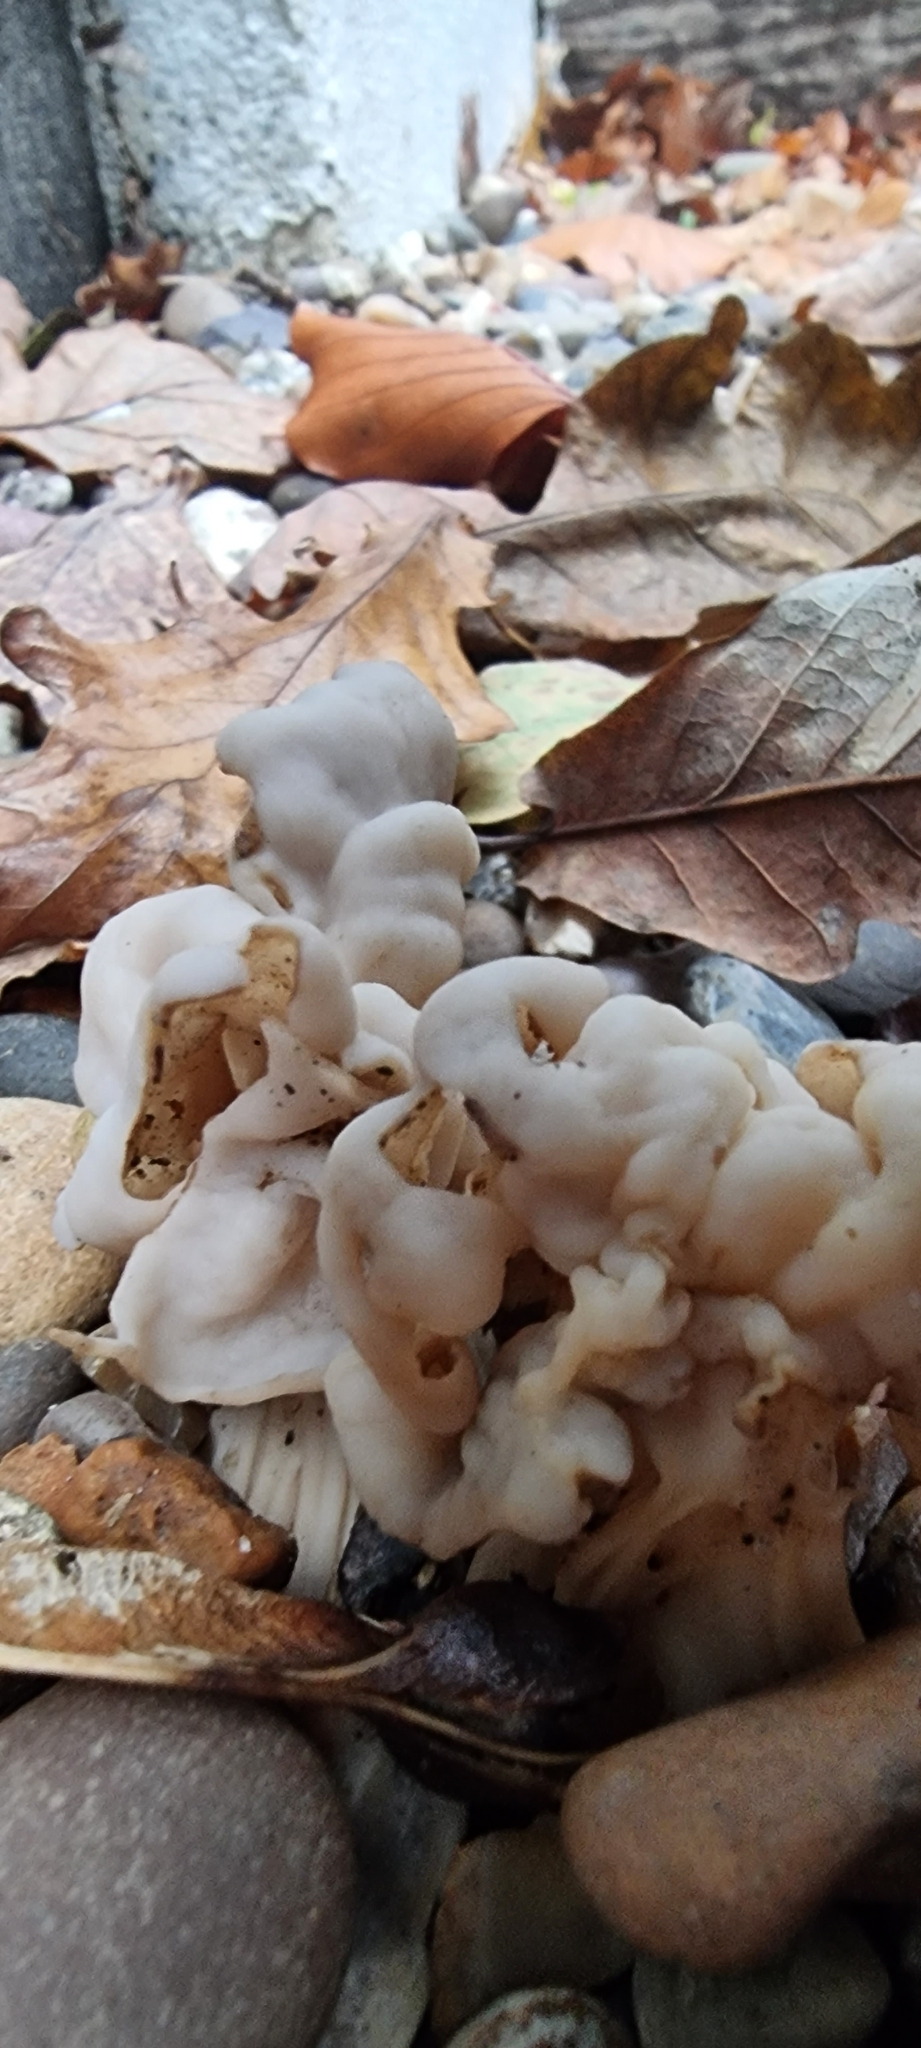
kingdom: Fungi
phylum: Ascomycota
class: Pezizomycetes
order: Pezizales
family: Helvellaceae
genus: Helvella
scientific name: Helvella crispa
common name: White saddle
